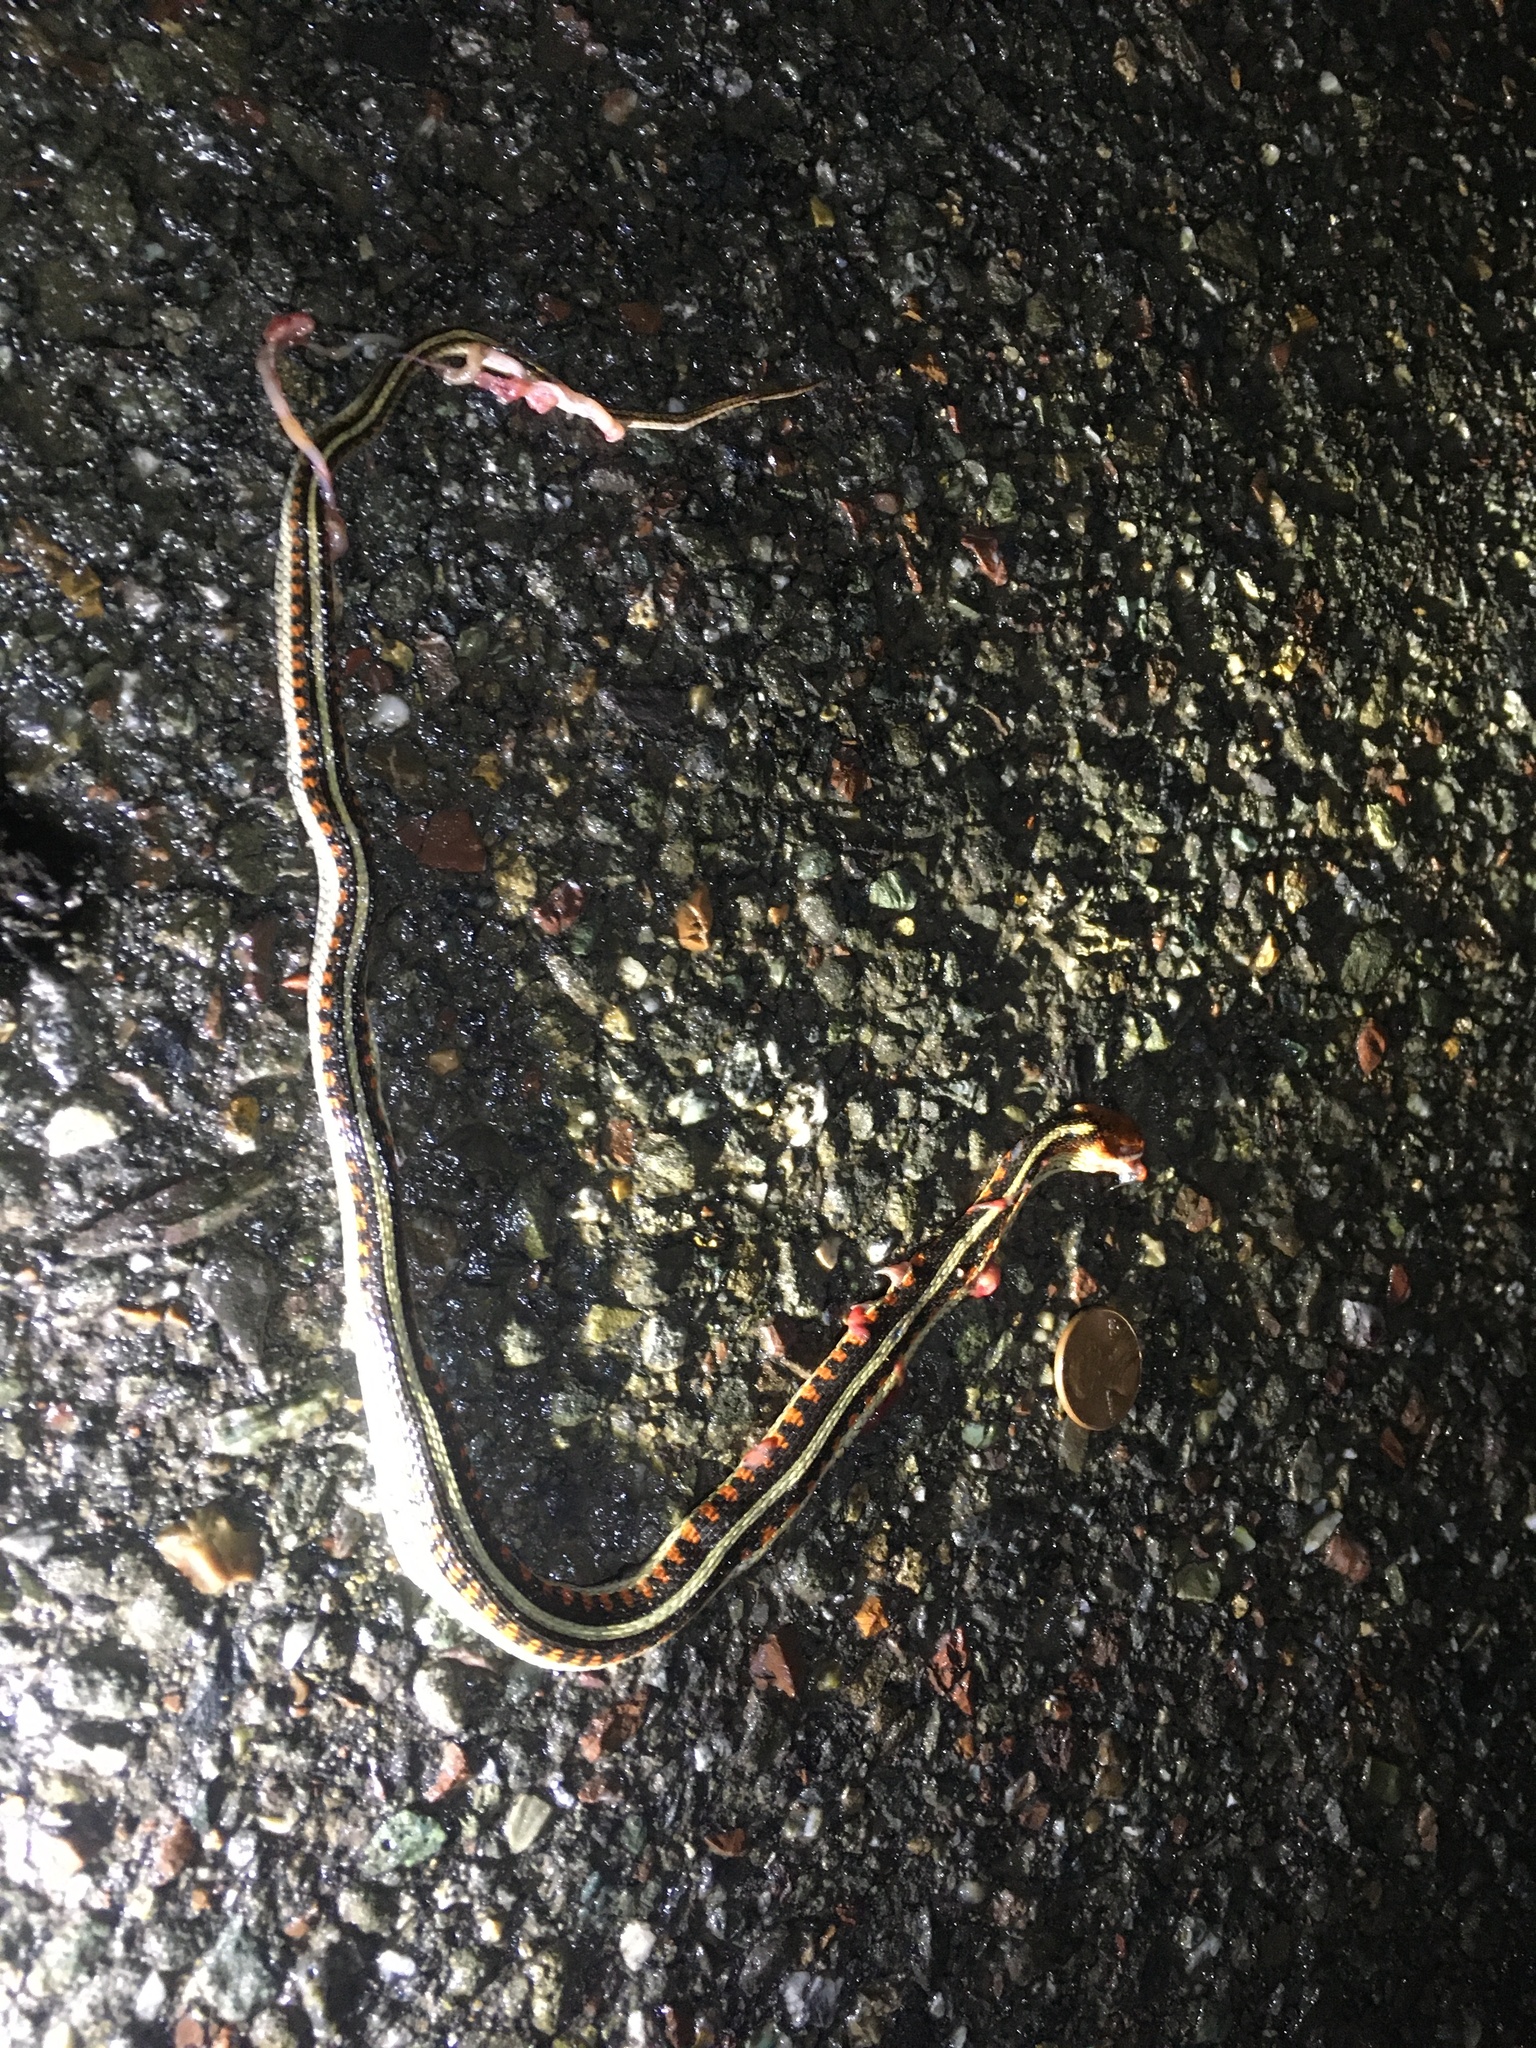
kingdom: Animalia
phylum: Chordata
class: Squamata
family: Colubridae
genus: Thamnophis
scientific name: Thamnophis sirtalis
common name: Common garter snake
